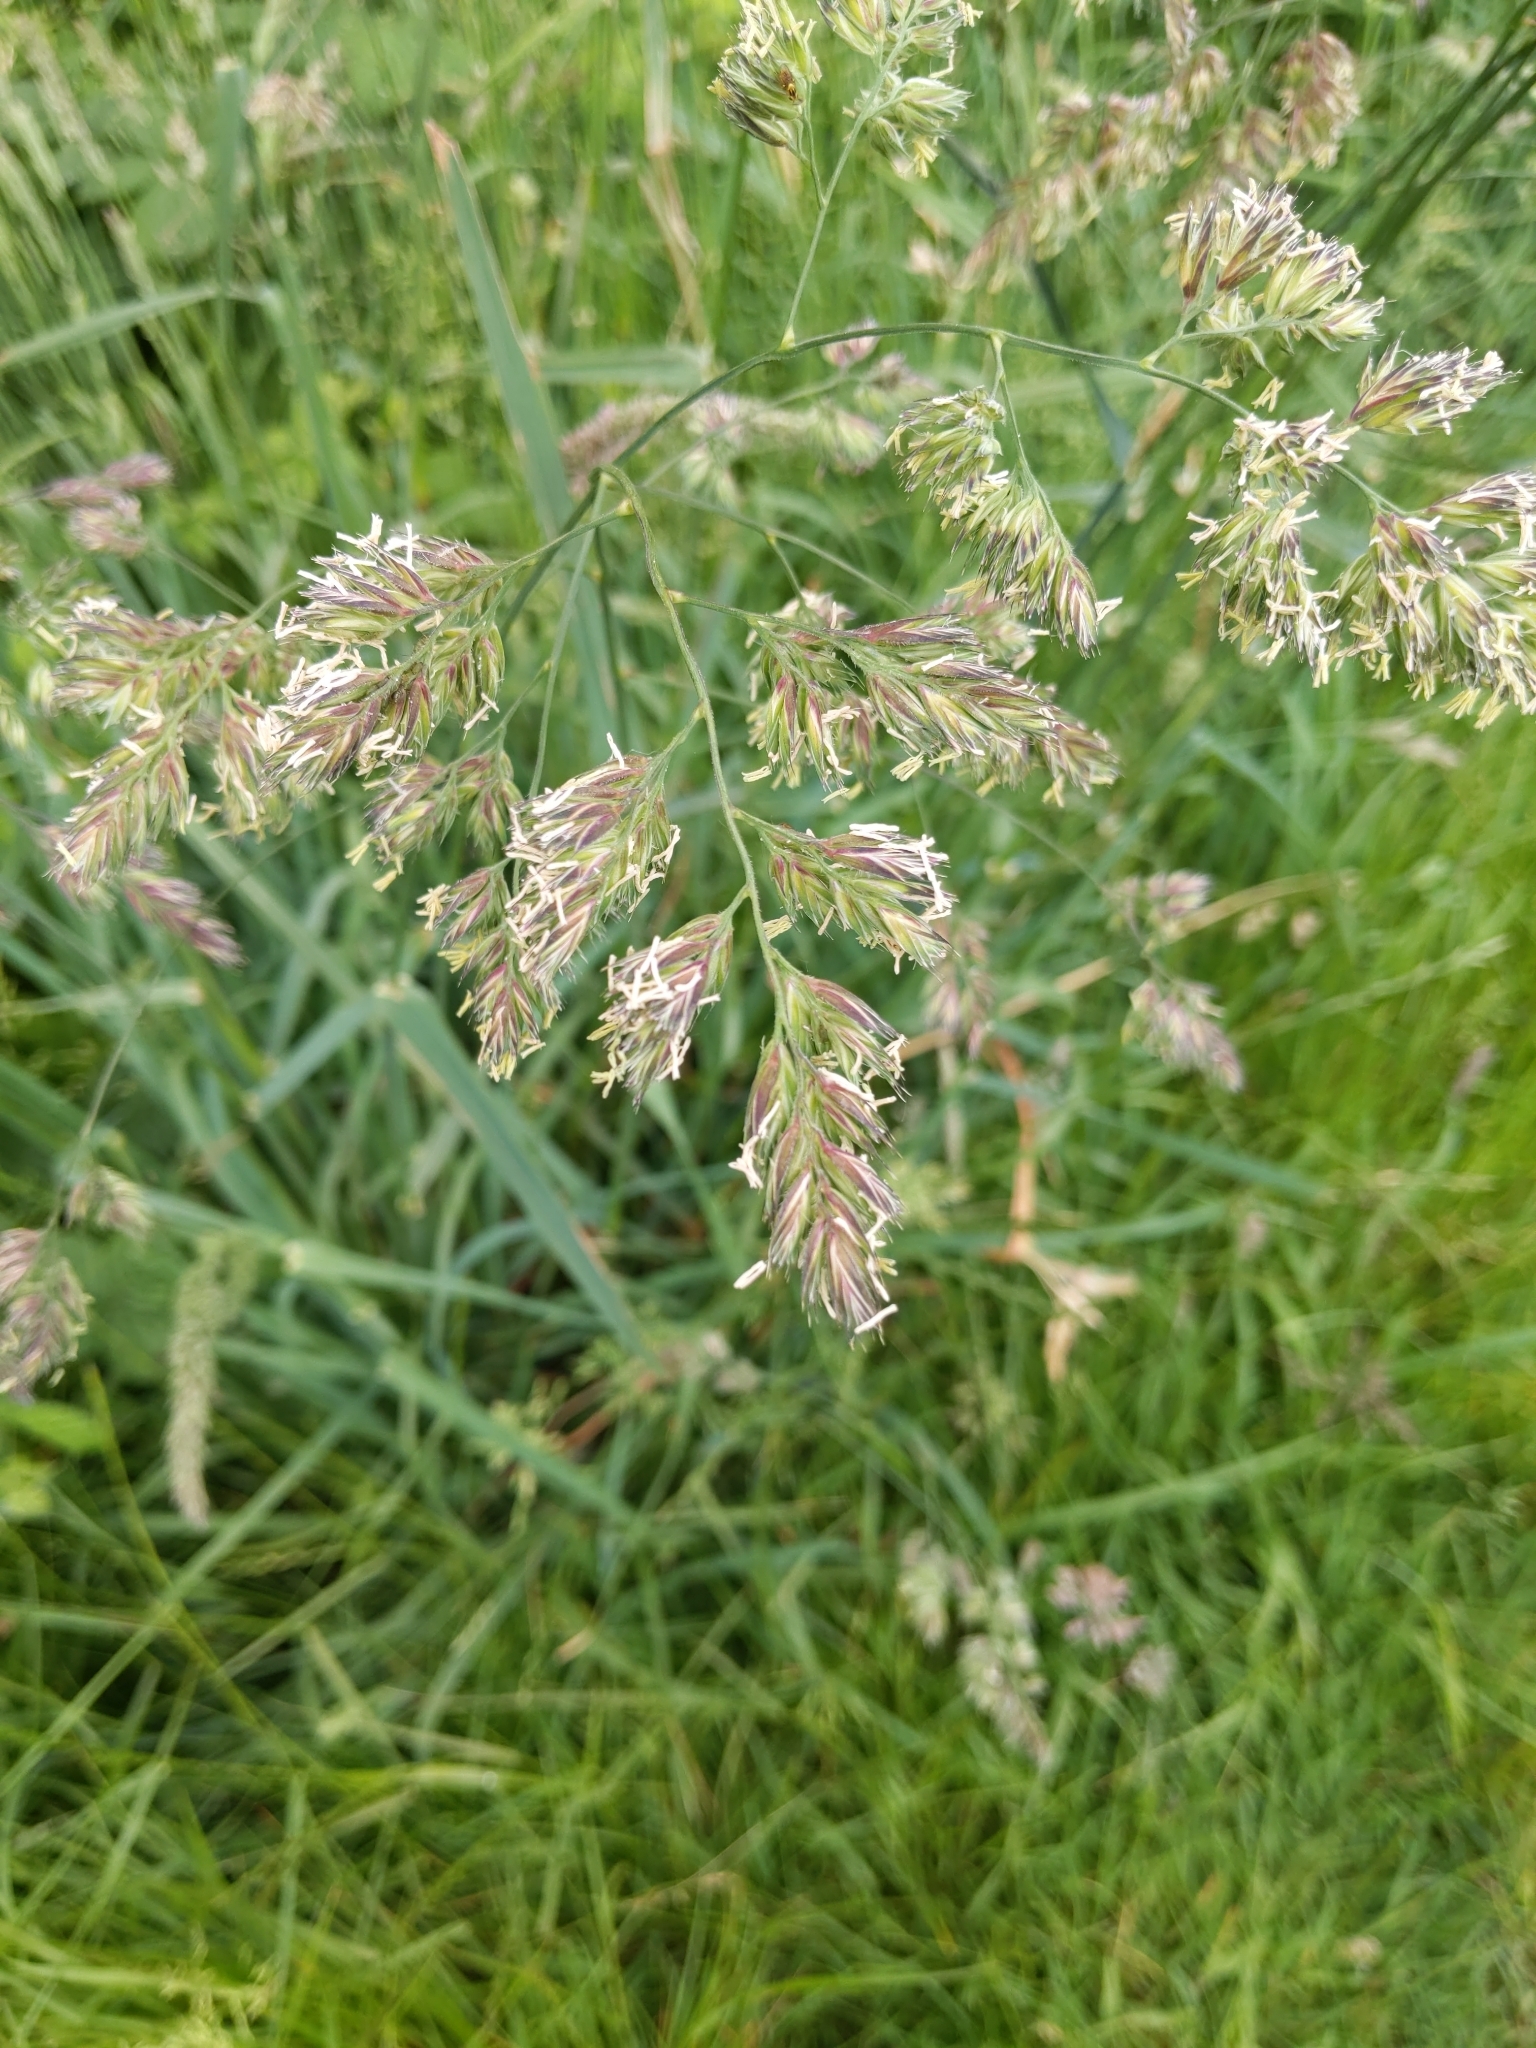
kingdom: Plantae
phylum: Tracheophyta
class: Liliopsida
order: Poales
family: Poaceae
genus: Dactylis
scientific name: Dactylis glomerata
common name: Orchardgrass
